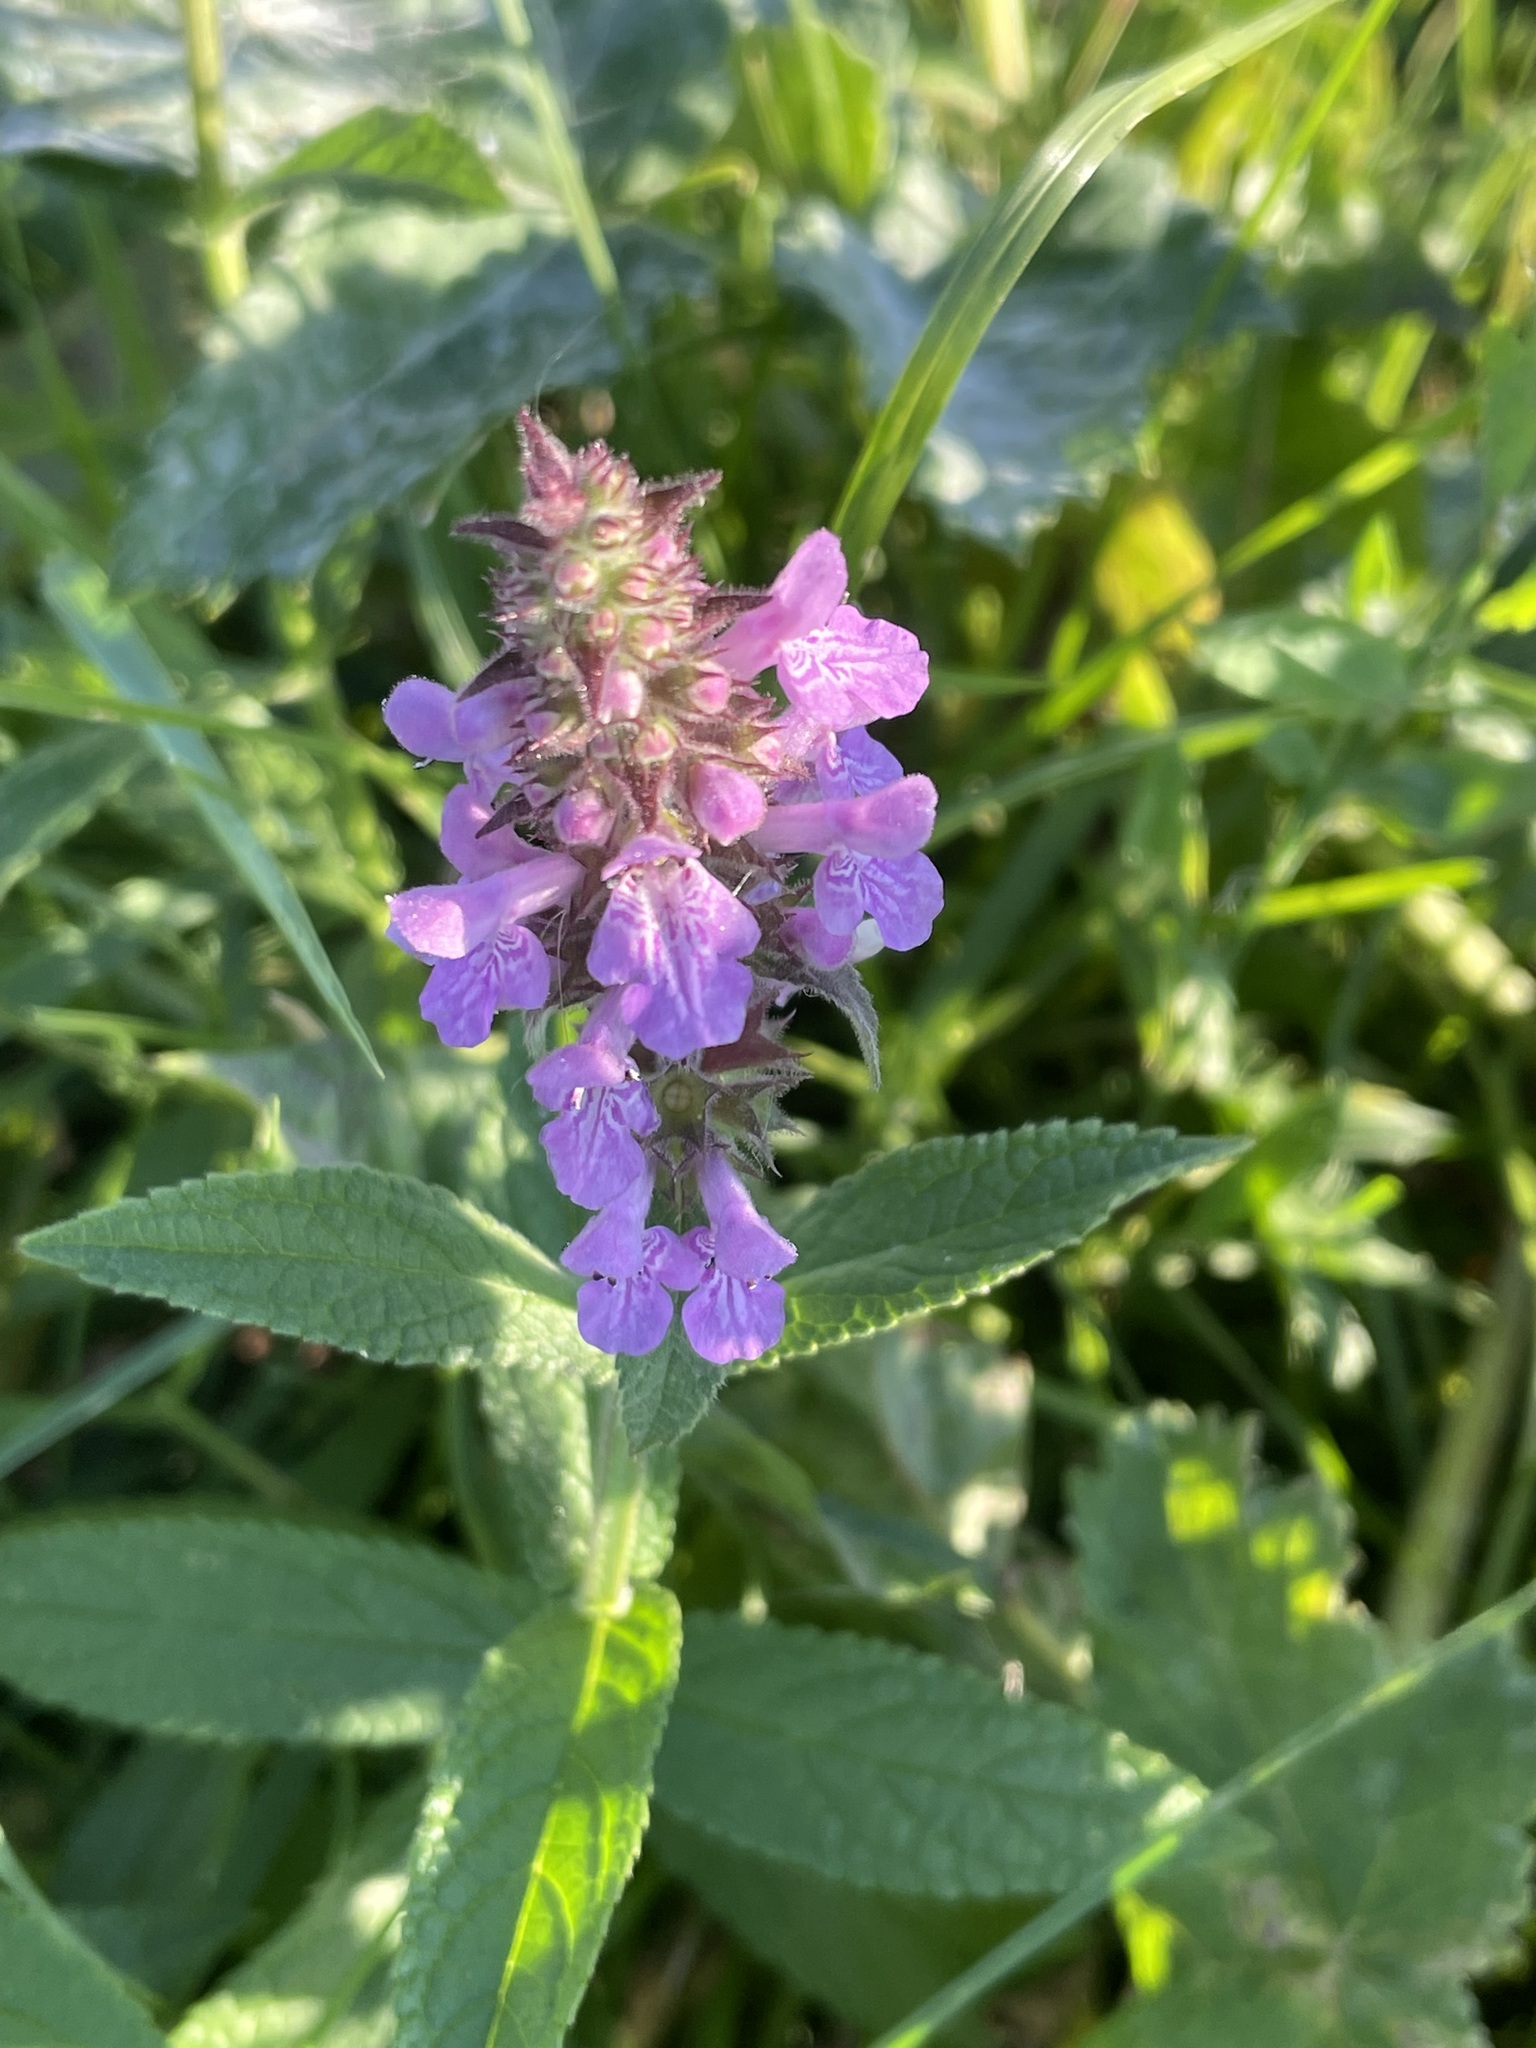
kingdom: Plantae
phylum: Tracheophyta
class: Magnoliopsida
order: Lamiales
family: Lamiaceae
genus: Stachys
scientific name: Stachys palustris
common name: Marsh woundwort
